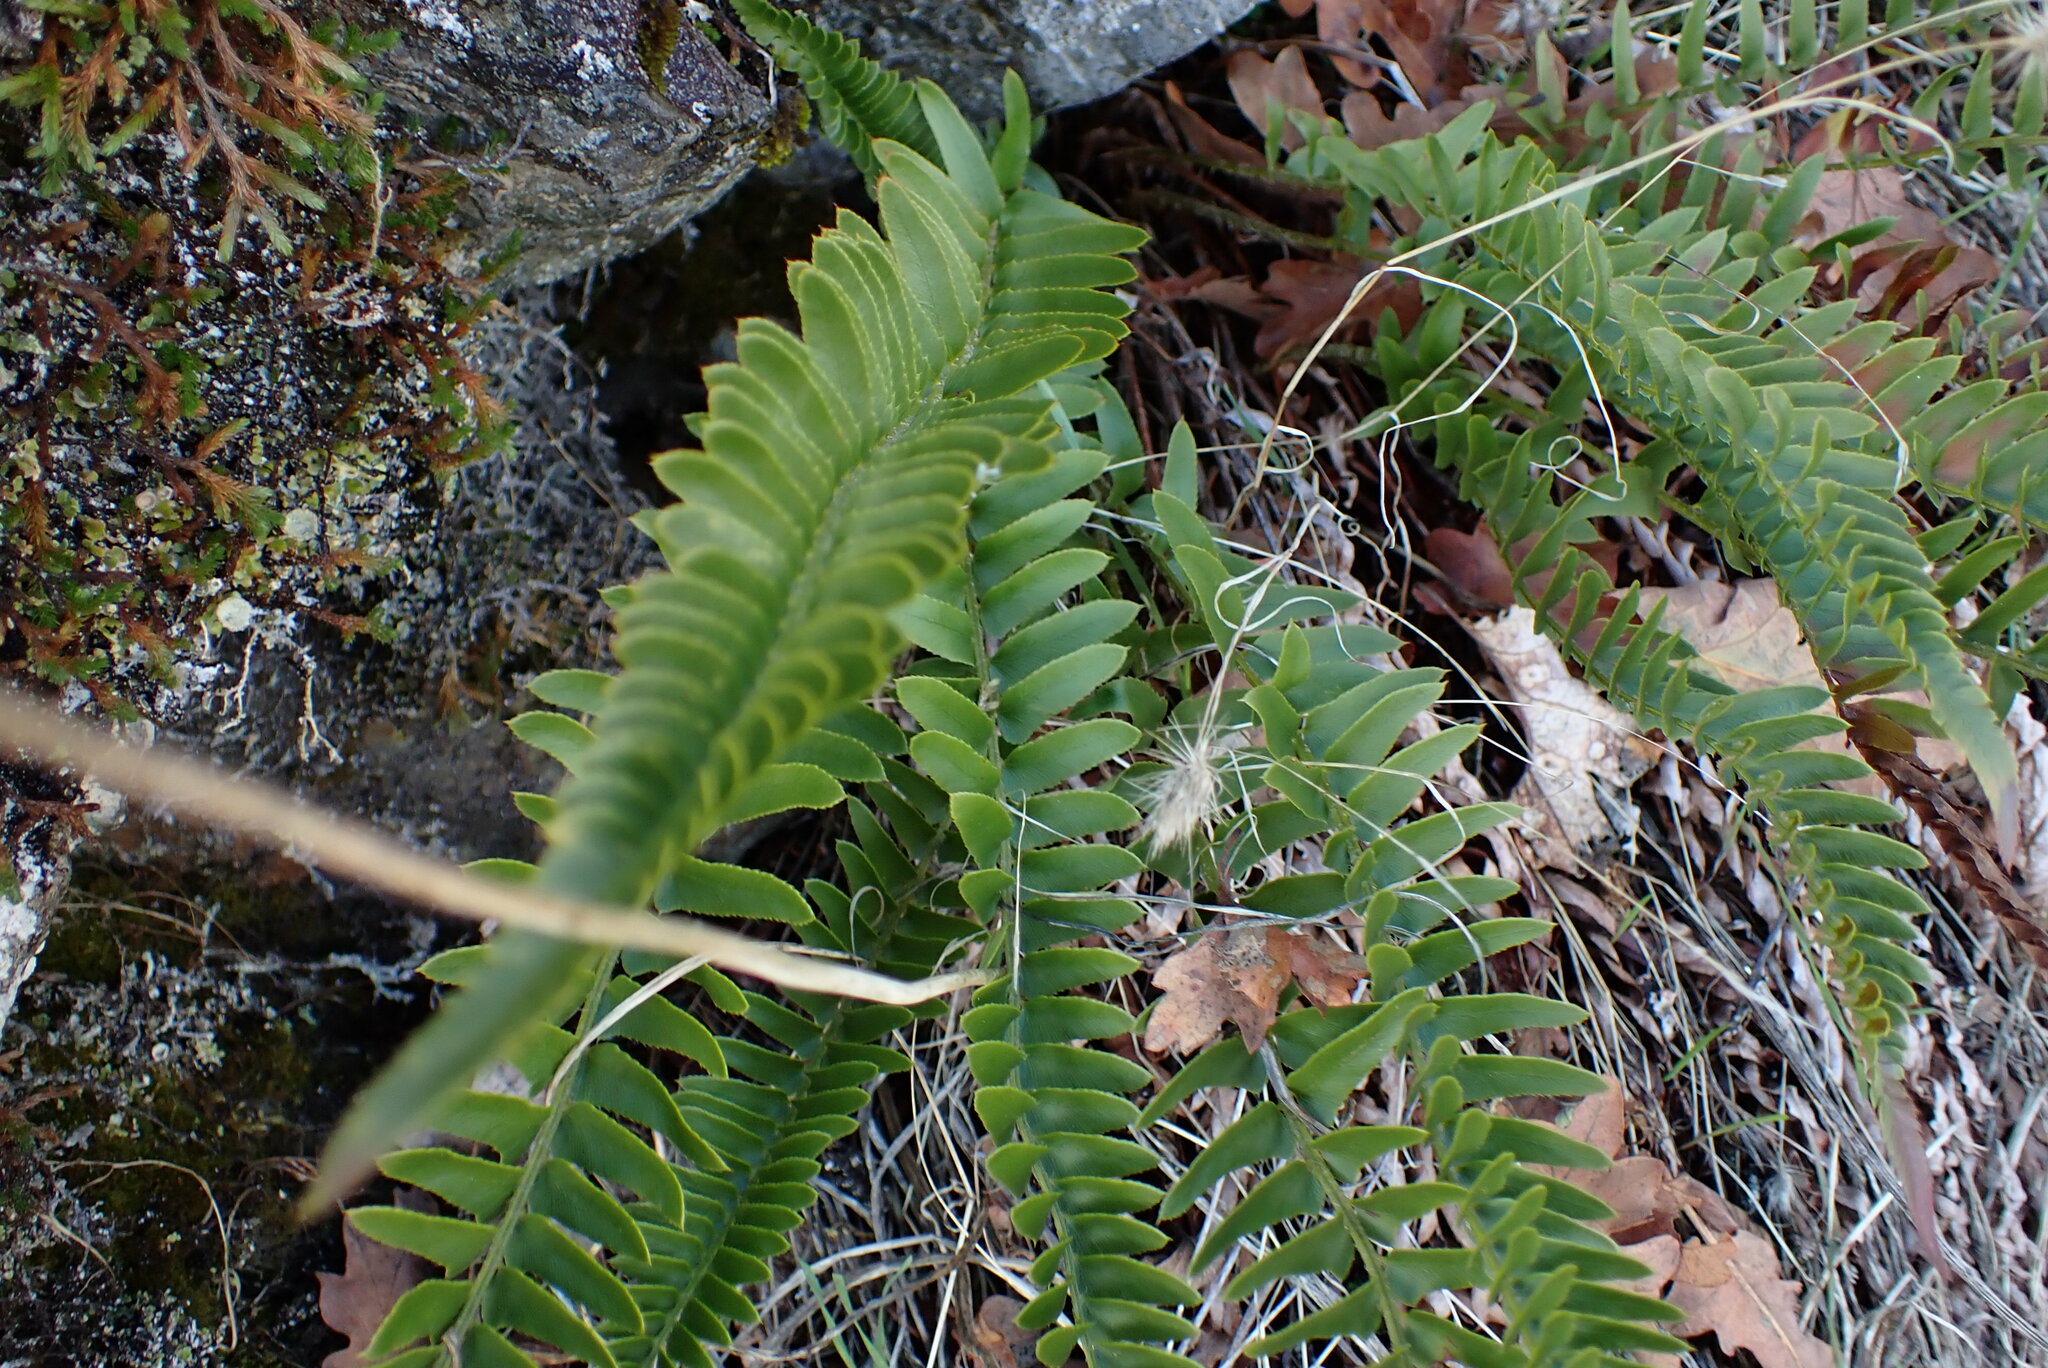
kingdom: Plantae
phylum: Tracheophyta
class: Polypodiopsida
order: Polypodiales
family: Dryopteridaceae
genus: Polystichum
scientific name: Polystichum imbricans
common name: Dwarf western sword fern
